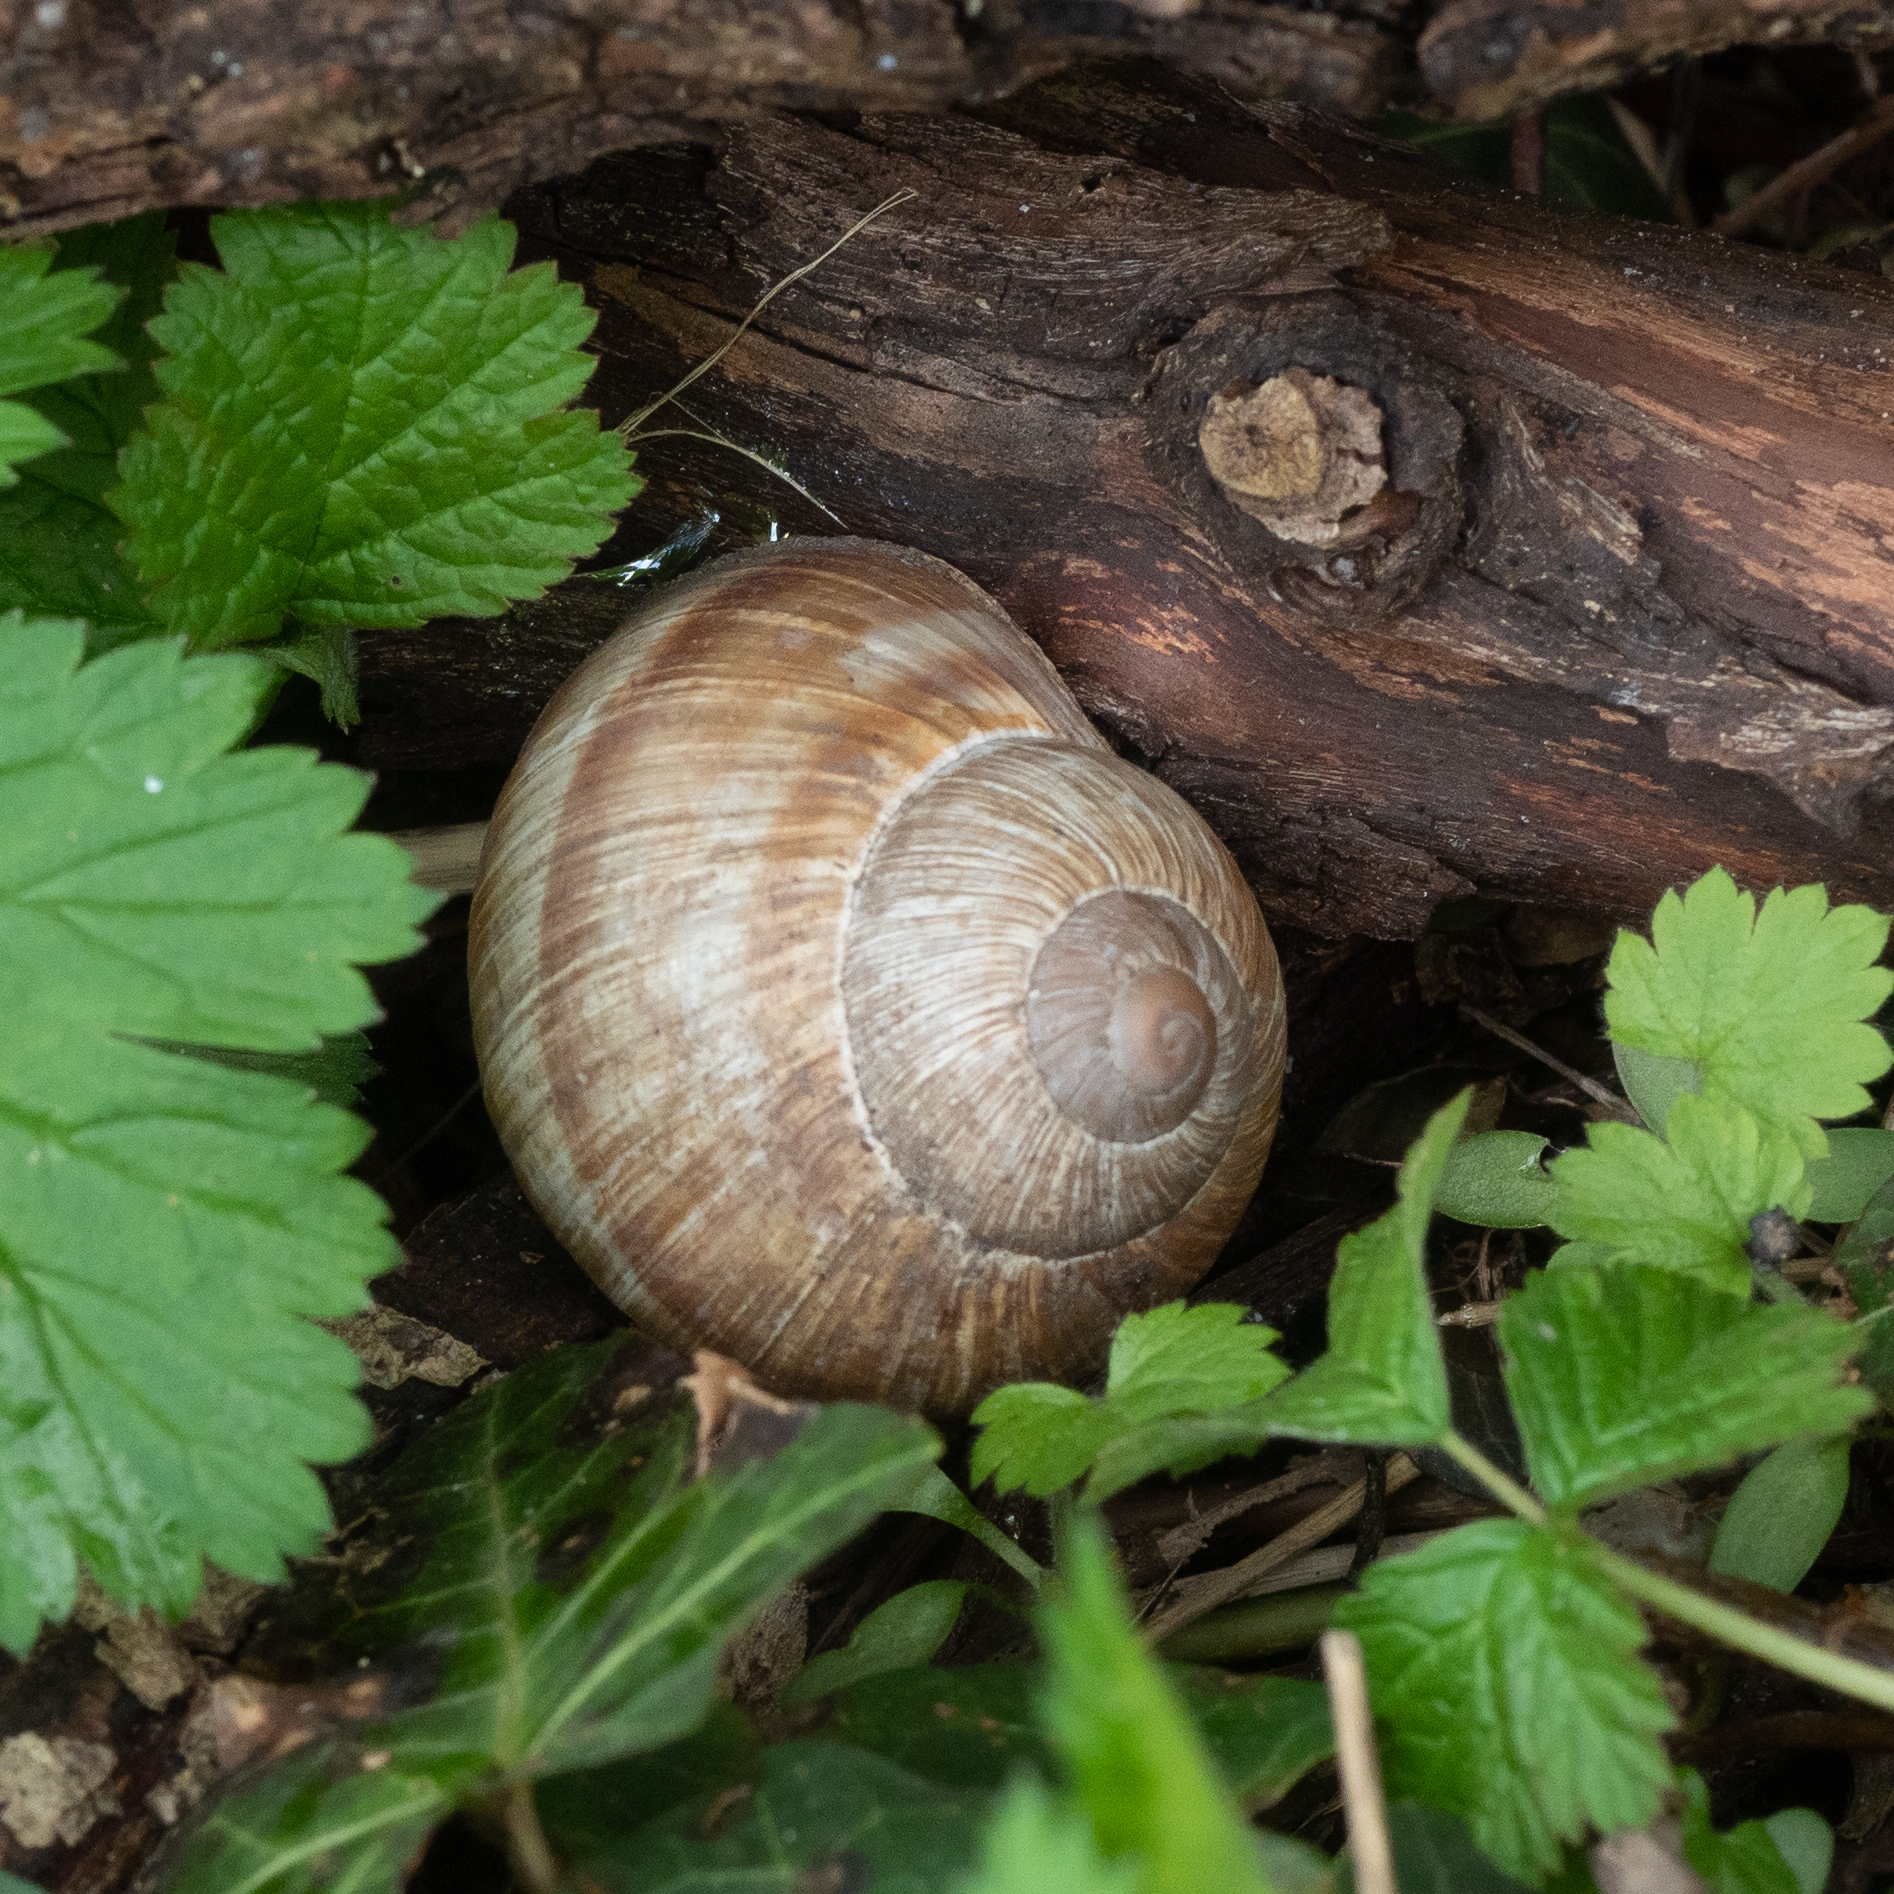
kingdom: Animalia
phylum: Mollusca
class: Gastropoda
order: Stylommatophora
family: Helicidae
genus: Helix
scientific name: Helix pomatia
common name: Roman snail
